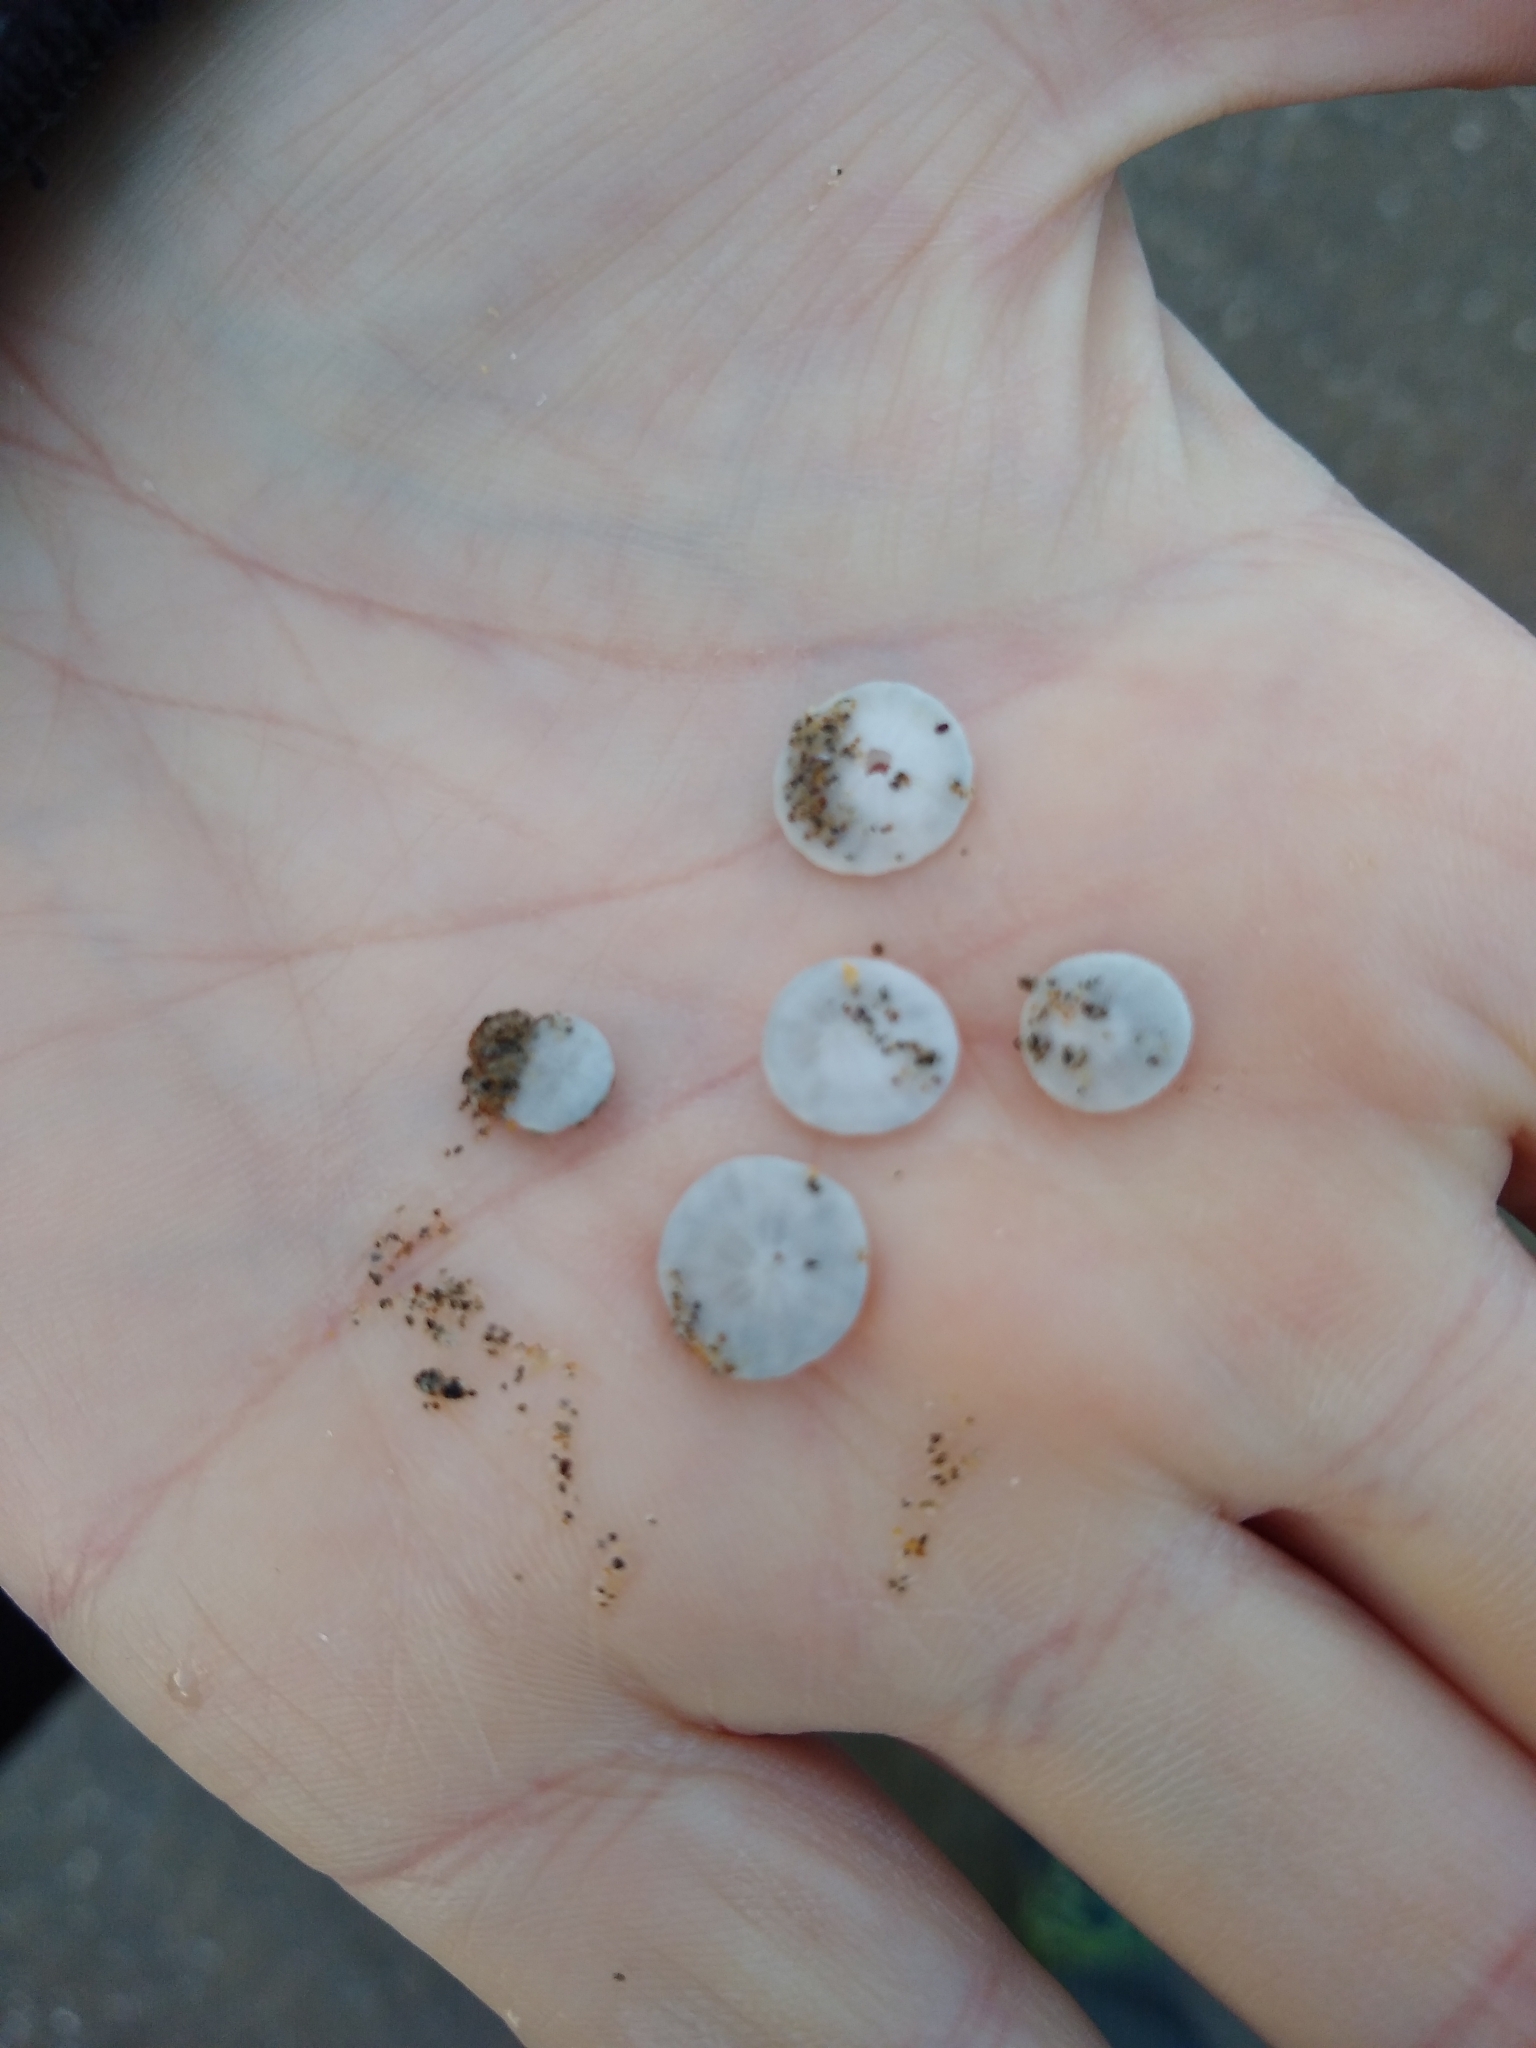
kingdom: Animalia
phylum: Echinodermata
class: Echinoidea
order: Echinolampadacea
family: Dendrasteridae
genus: Dendraster
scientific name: Dendraster excentricus
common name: Eccentric sand dollar sea urchin
